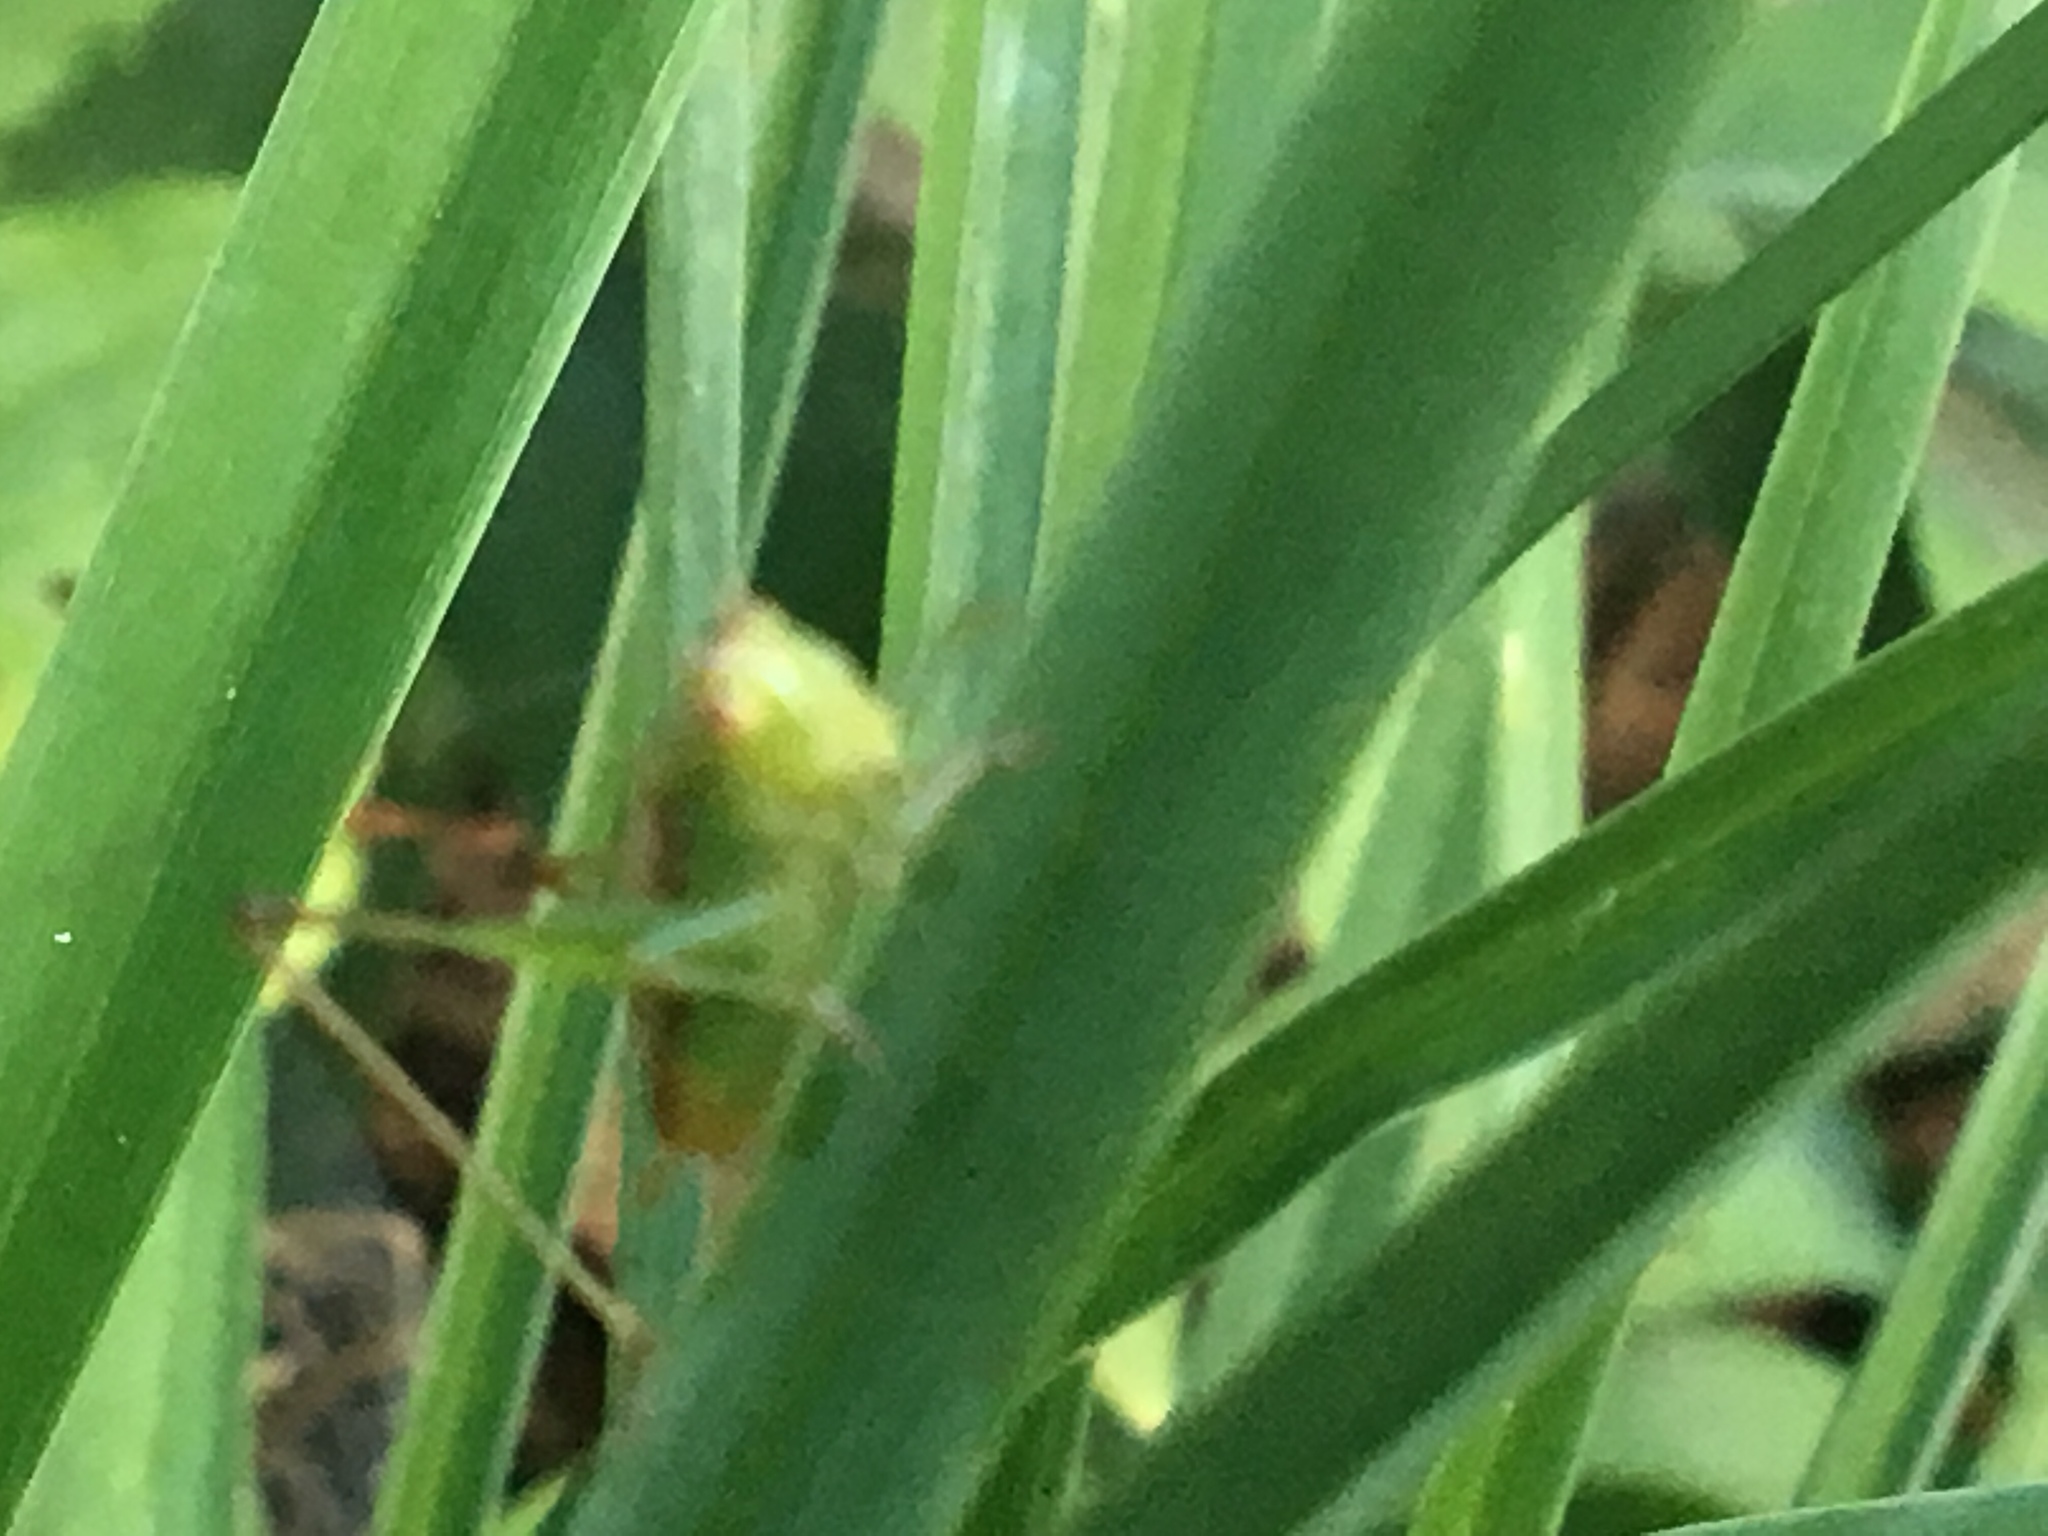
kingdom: Animalia
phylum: Arthropoda
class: Insecta
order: Orthoptera
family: Tettigoniidae
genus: Conocephalus
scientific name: Conocephalus brevipennis
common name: Short-winged meadow katydid
